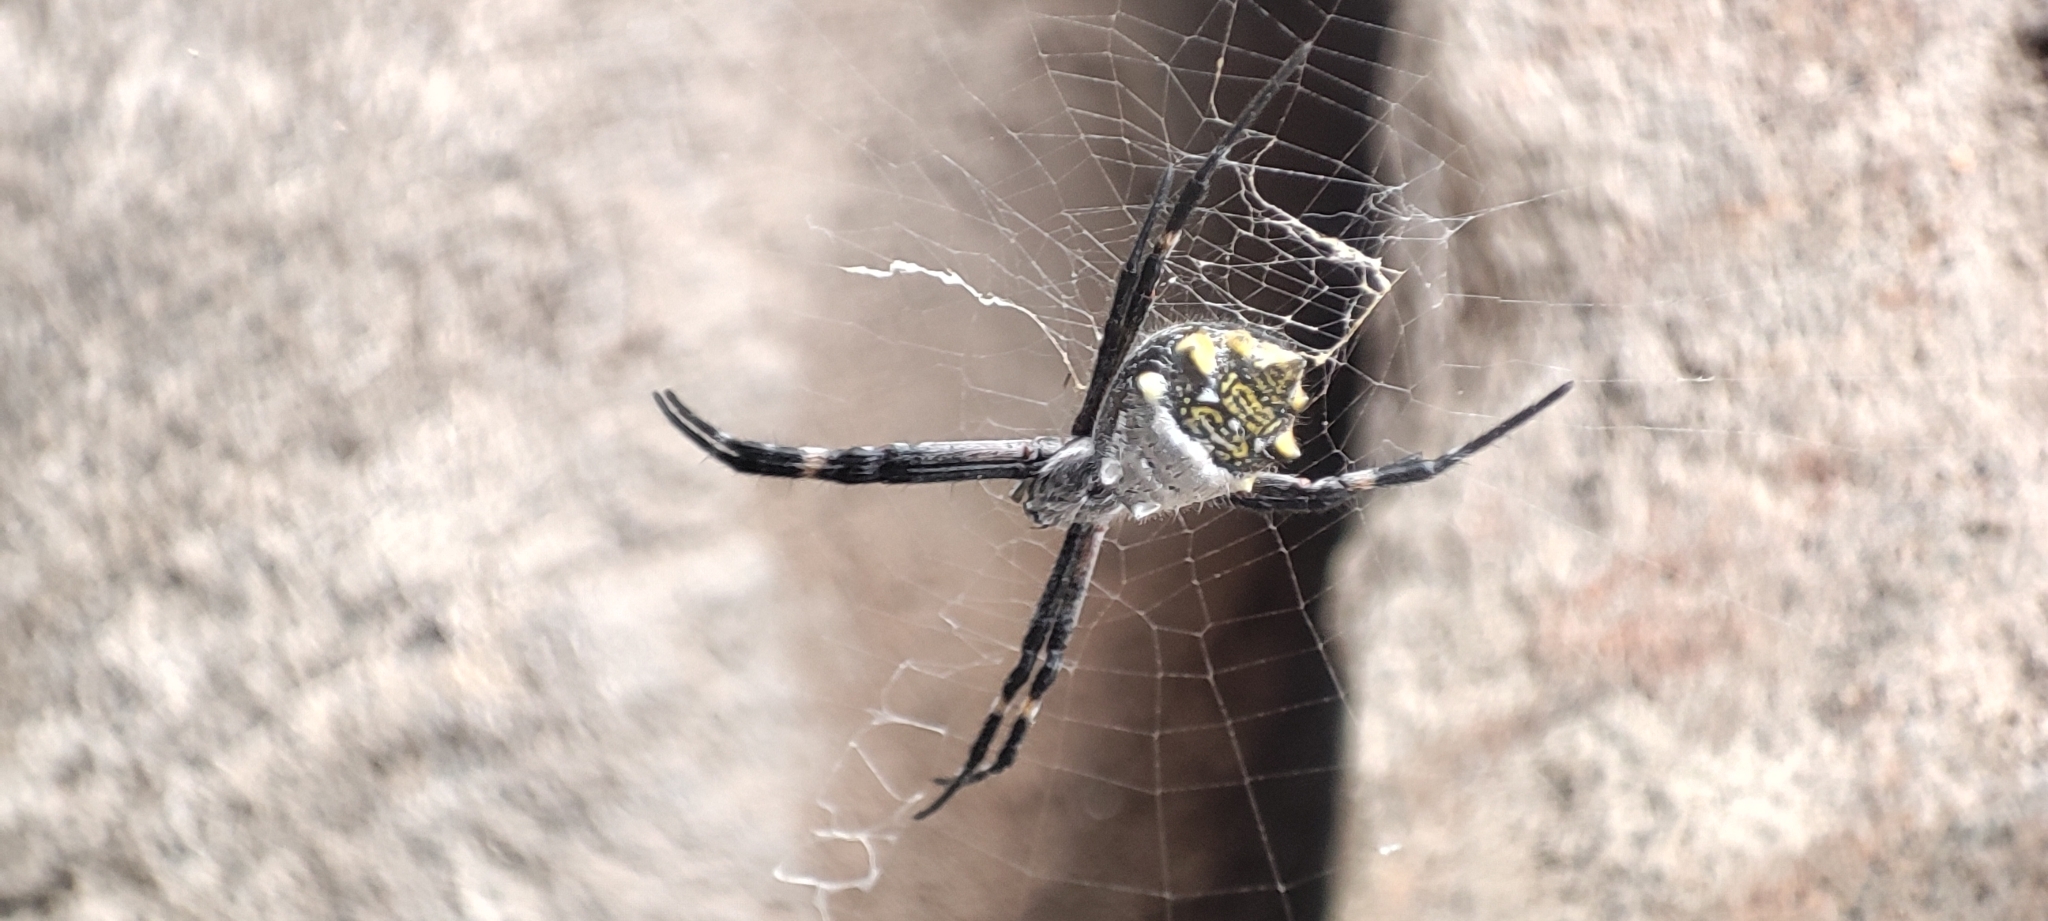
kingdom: Animalia
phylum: Arthropoda
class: Arachnida
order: Araneae
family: Araneidae
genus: Argiope
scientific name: Argiope argentata
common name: Orb weavers
